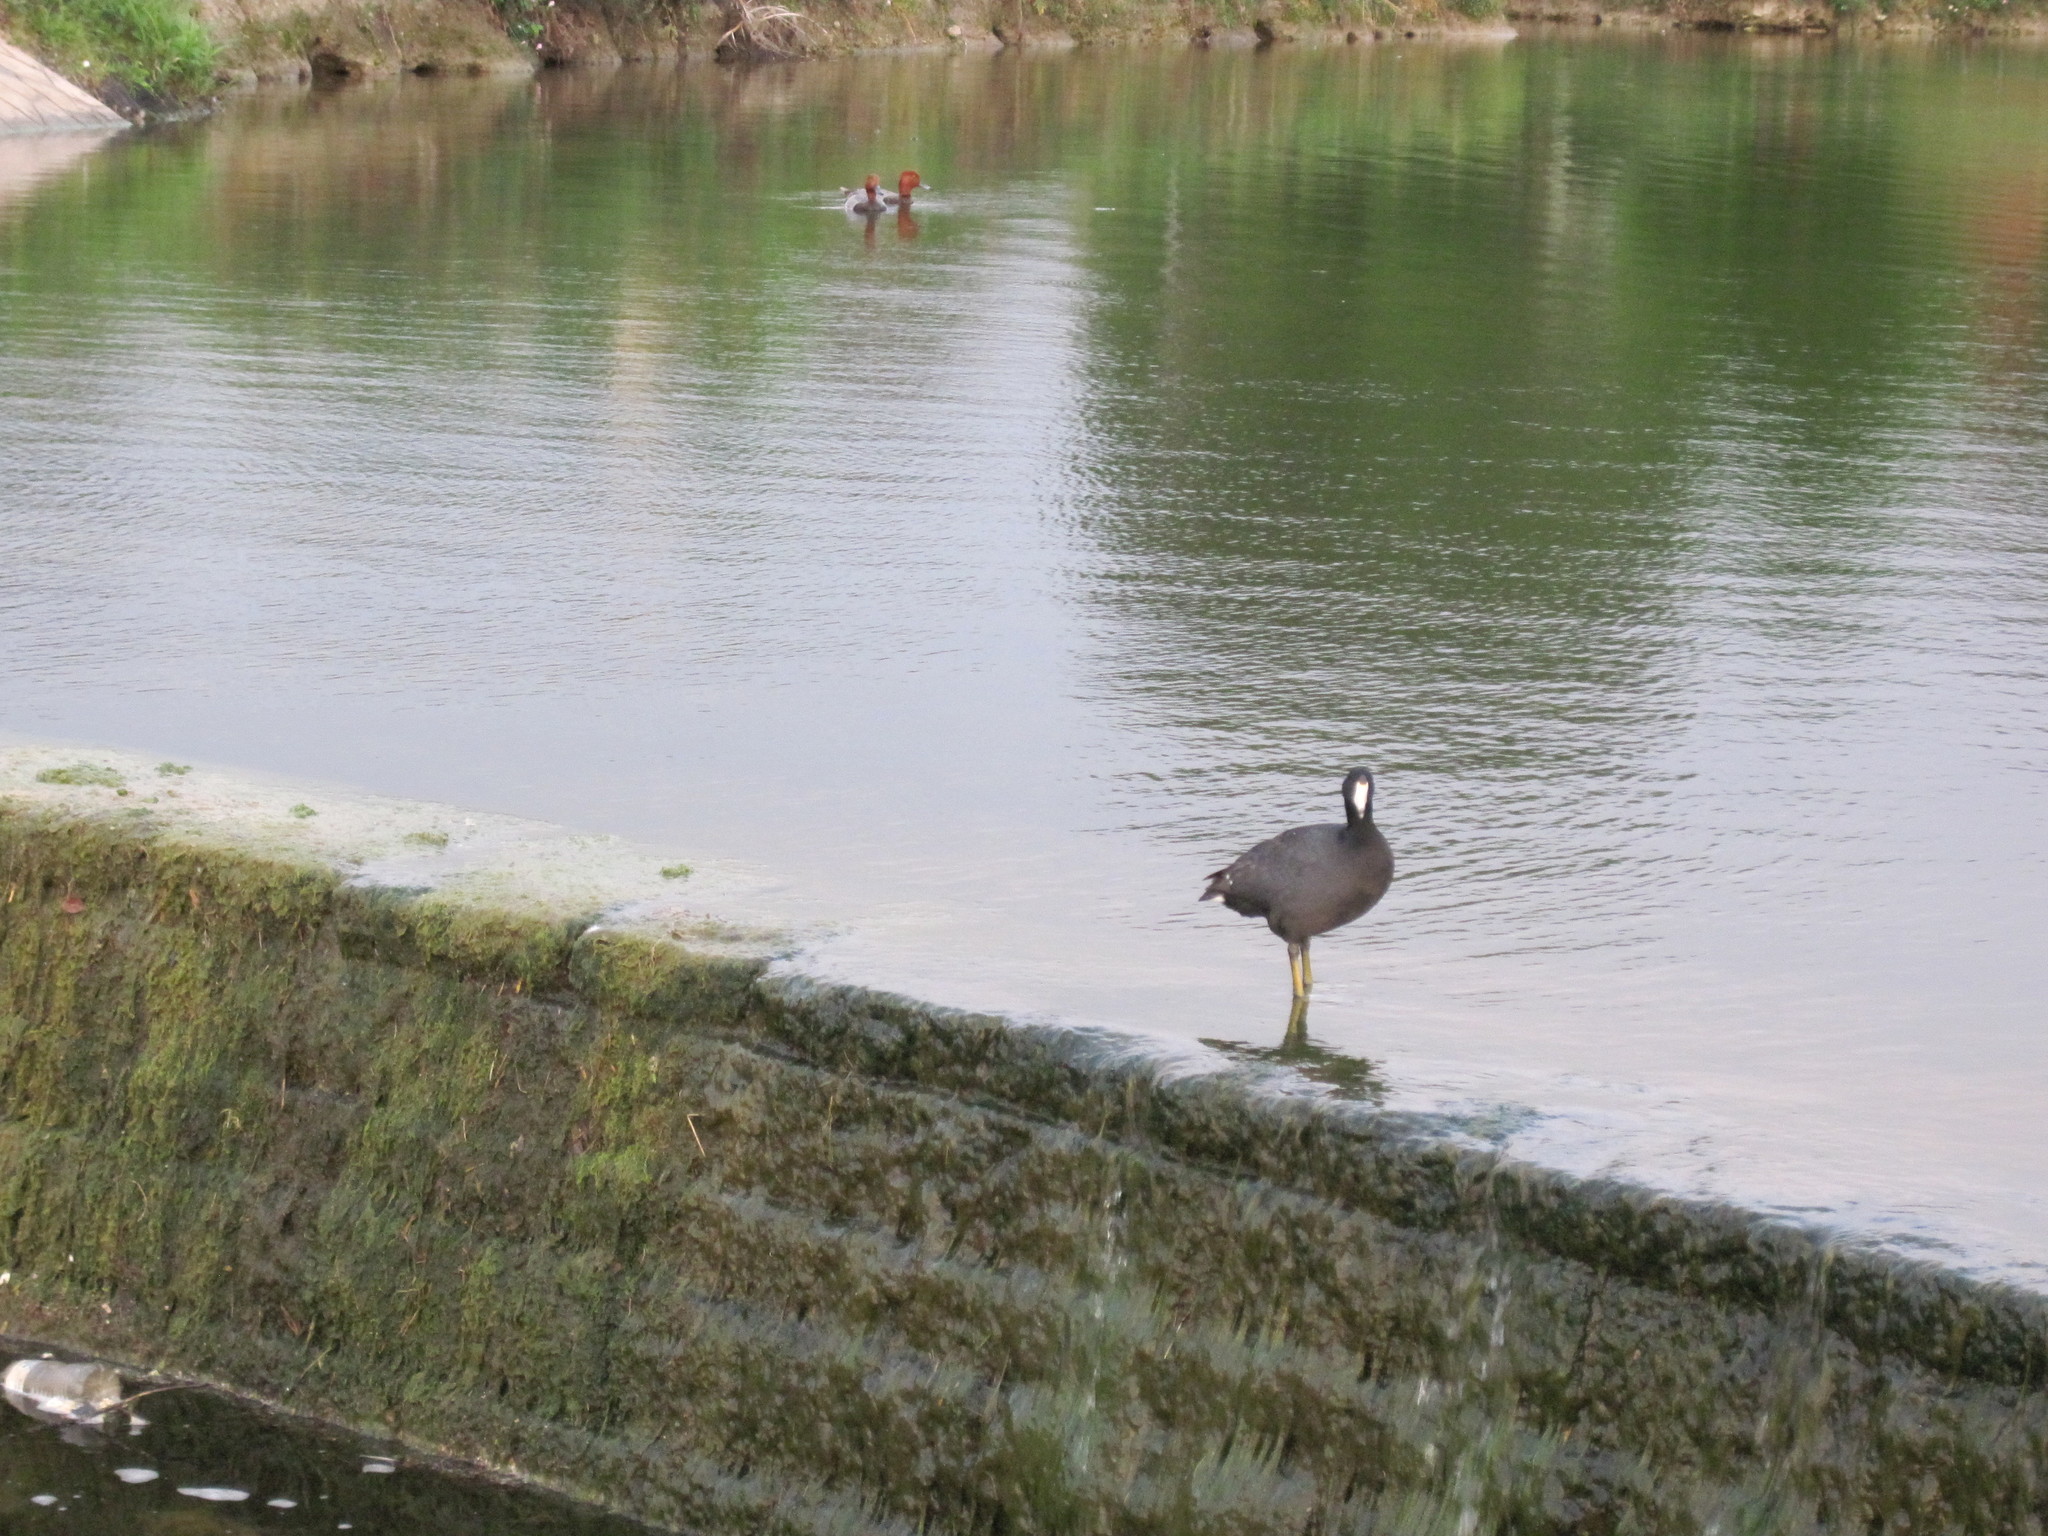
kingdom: Animalia
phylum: Chordata
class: Aves
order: Gruiformes
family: Rallidae
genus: Fulica
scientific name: Fulica americana
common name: American coot
